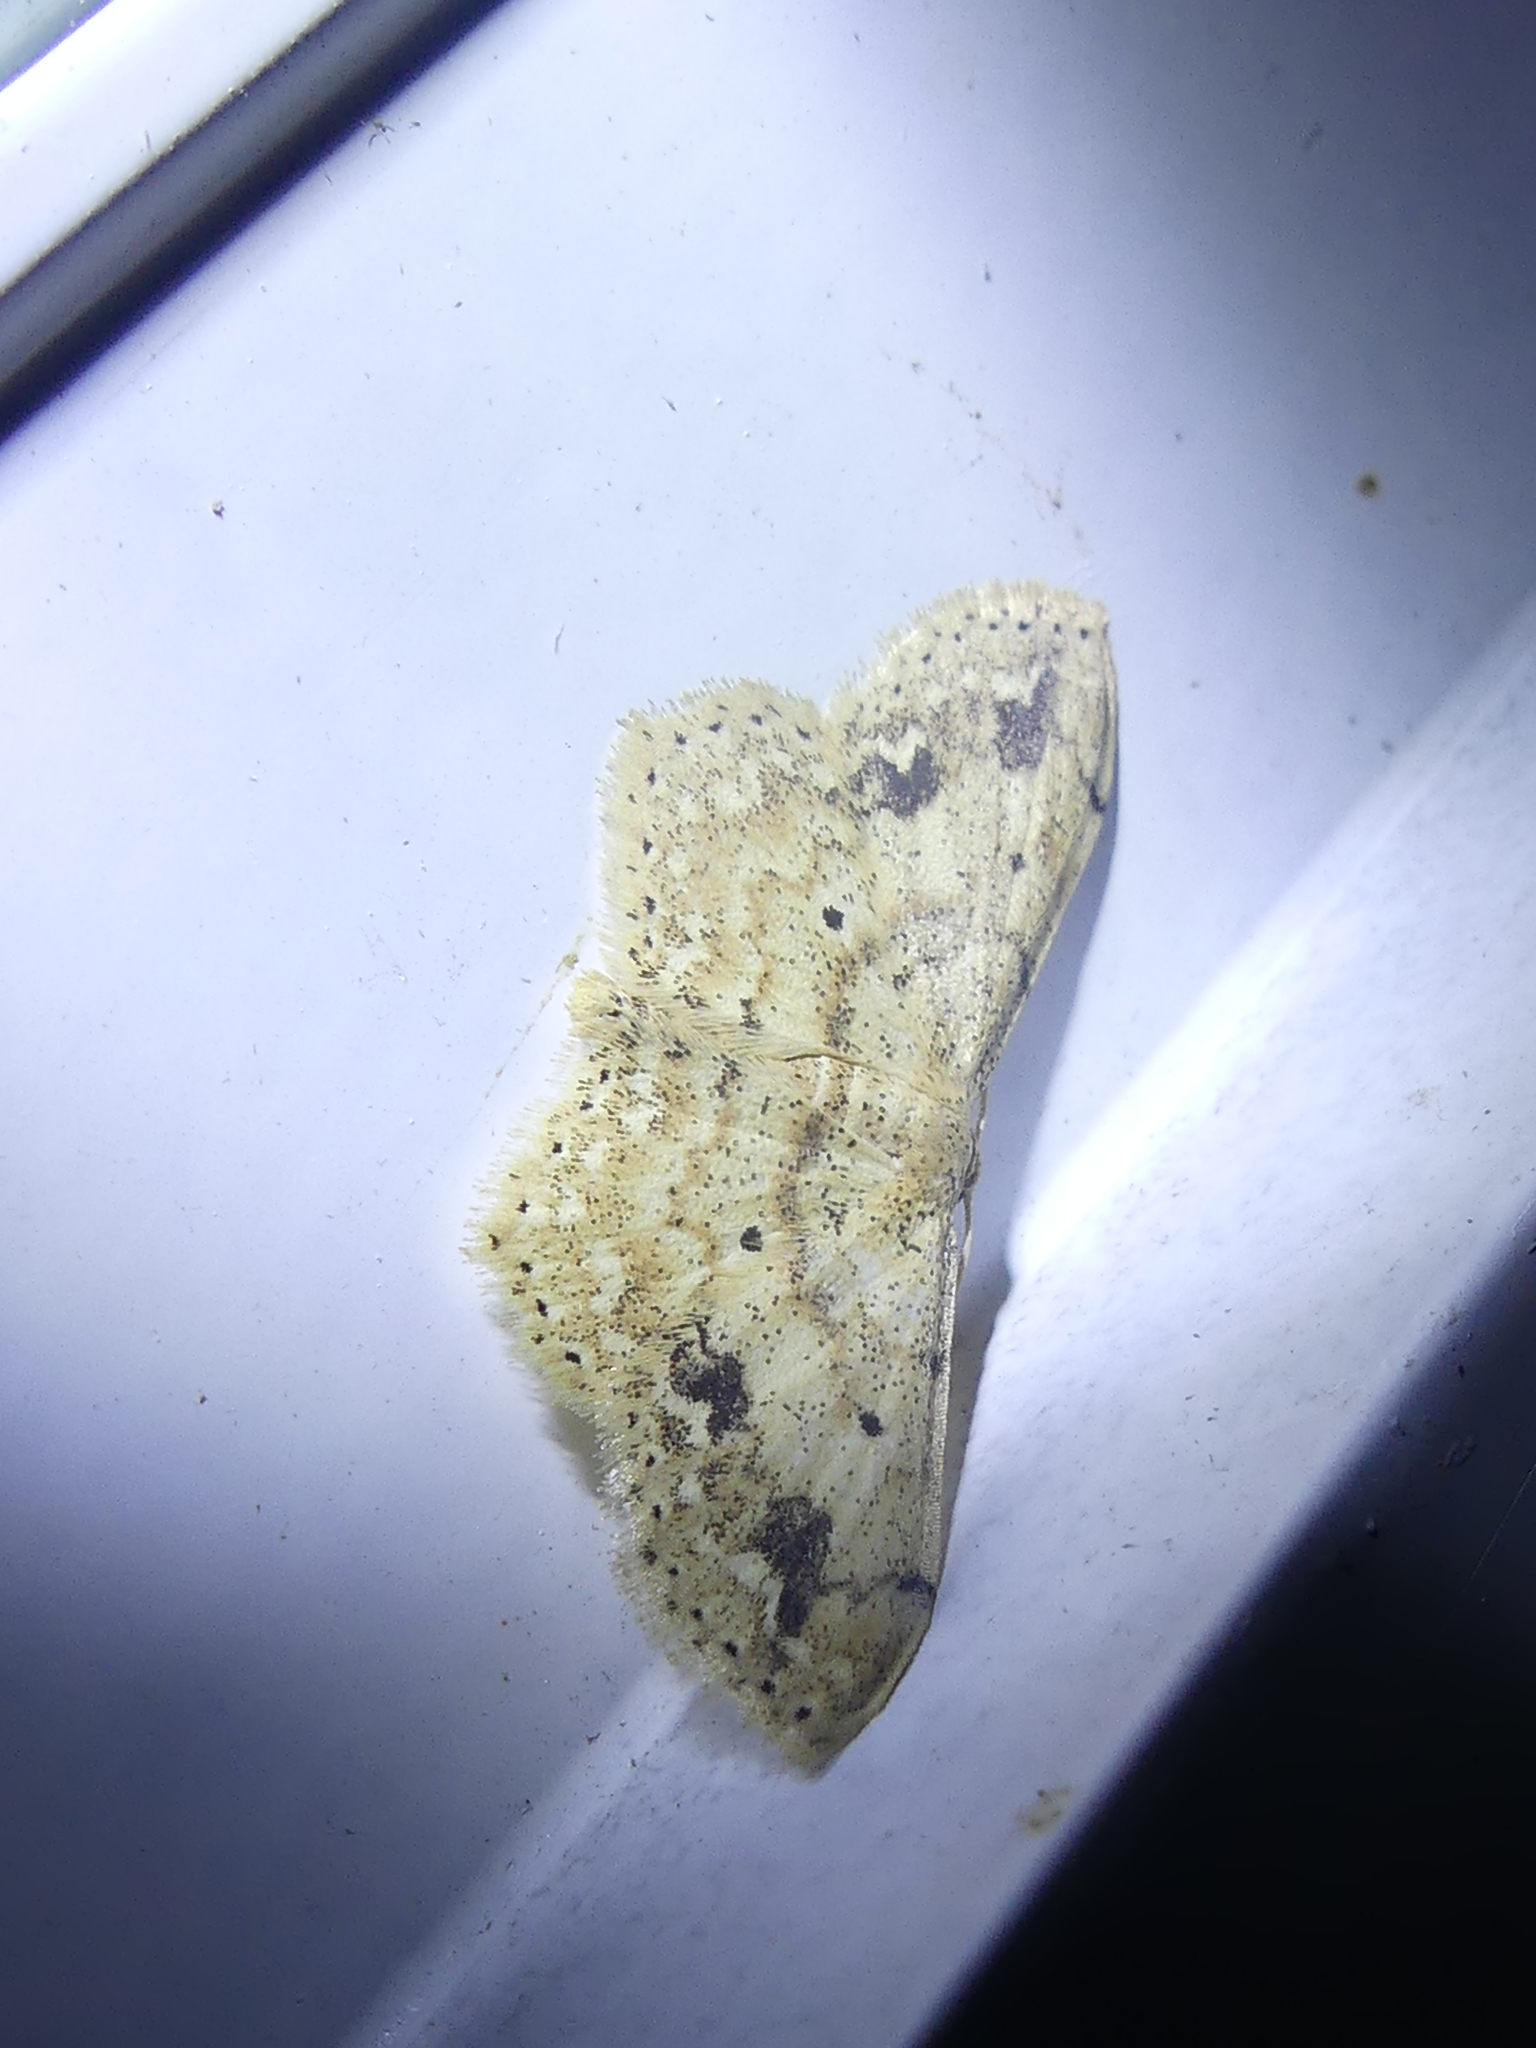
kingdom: Animalia
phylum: Arthropoda
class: Insecta
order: Lepidoptera
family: Geometridae
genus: Scopula
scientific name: Scopula compensata
